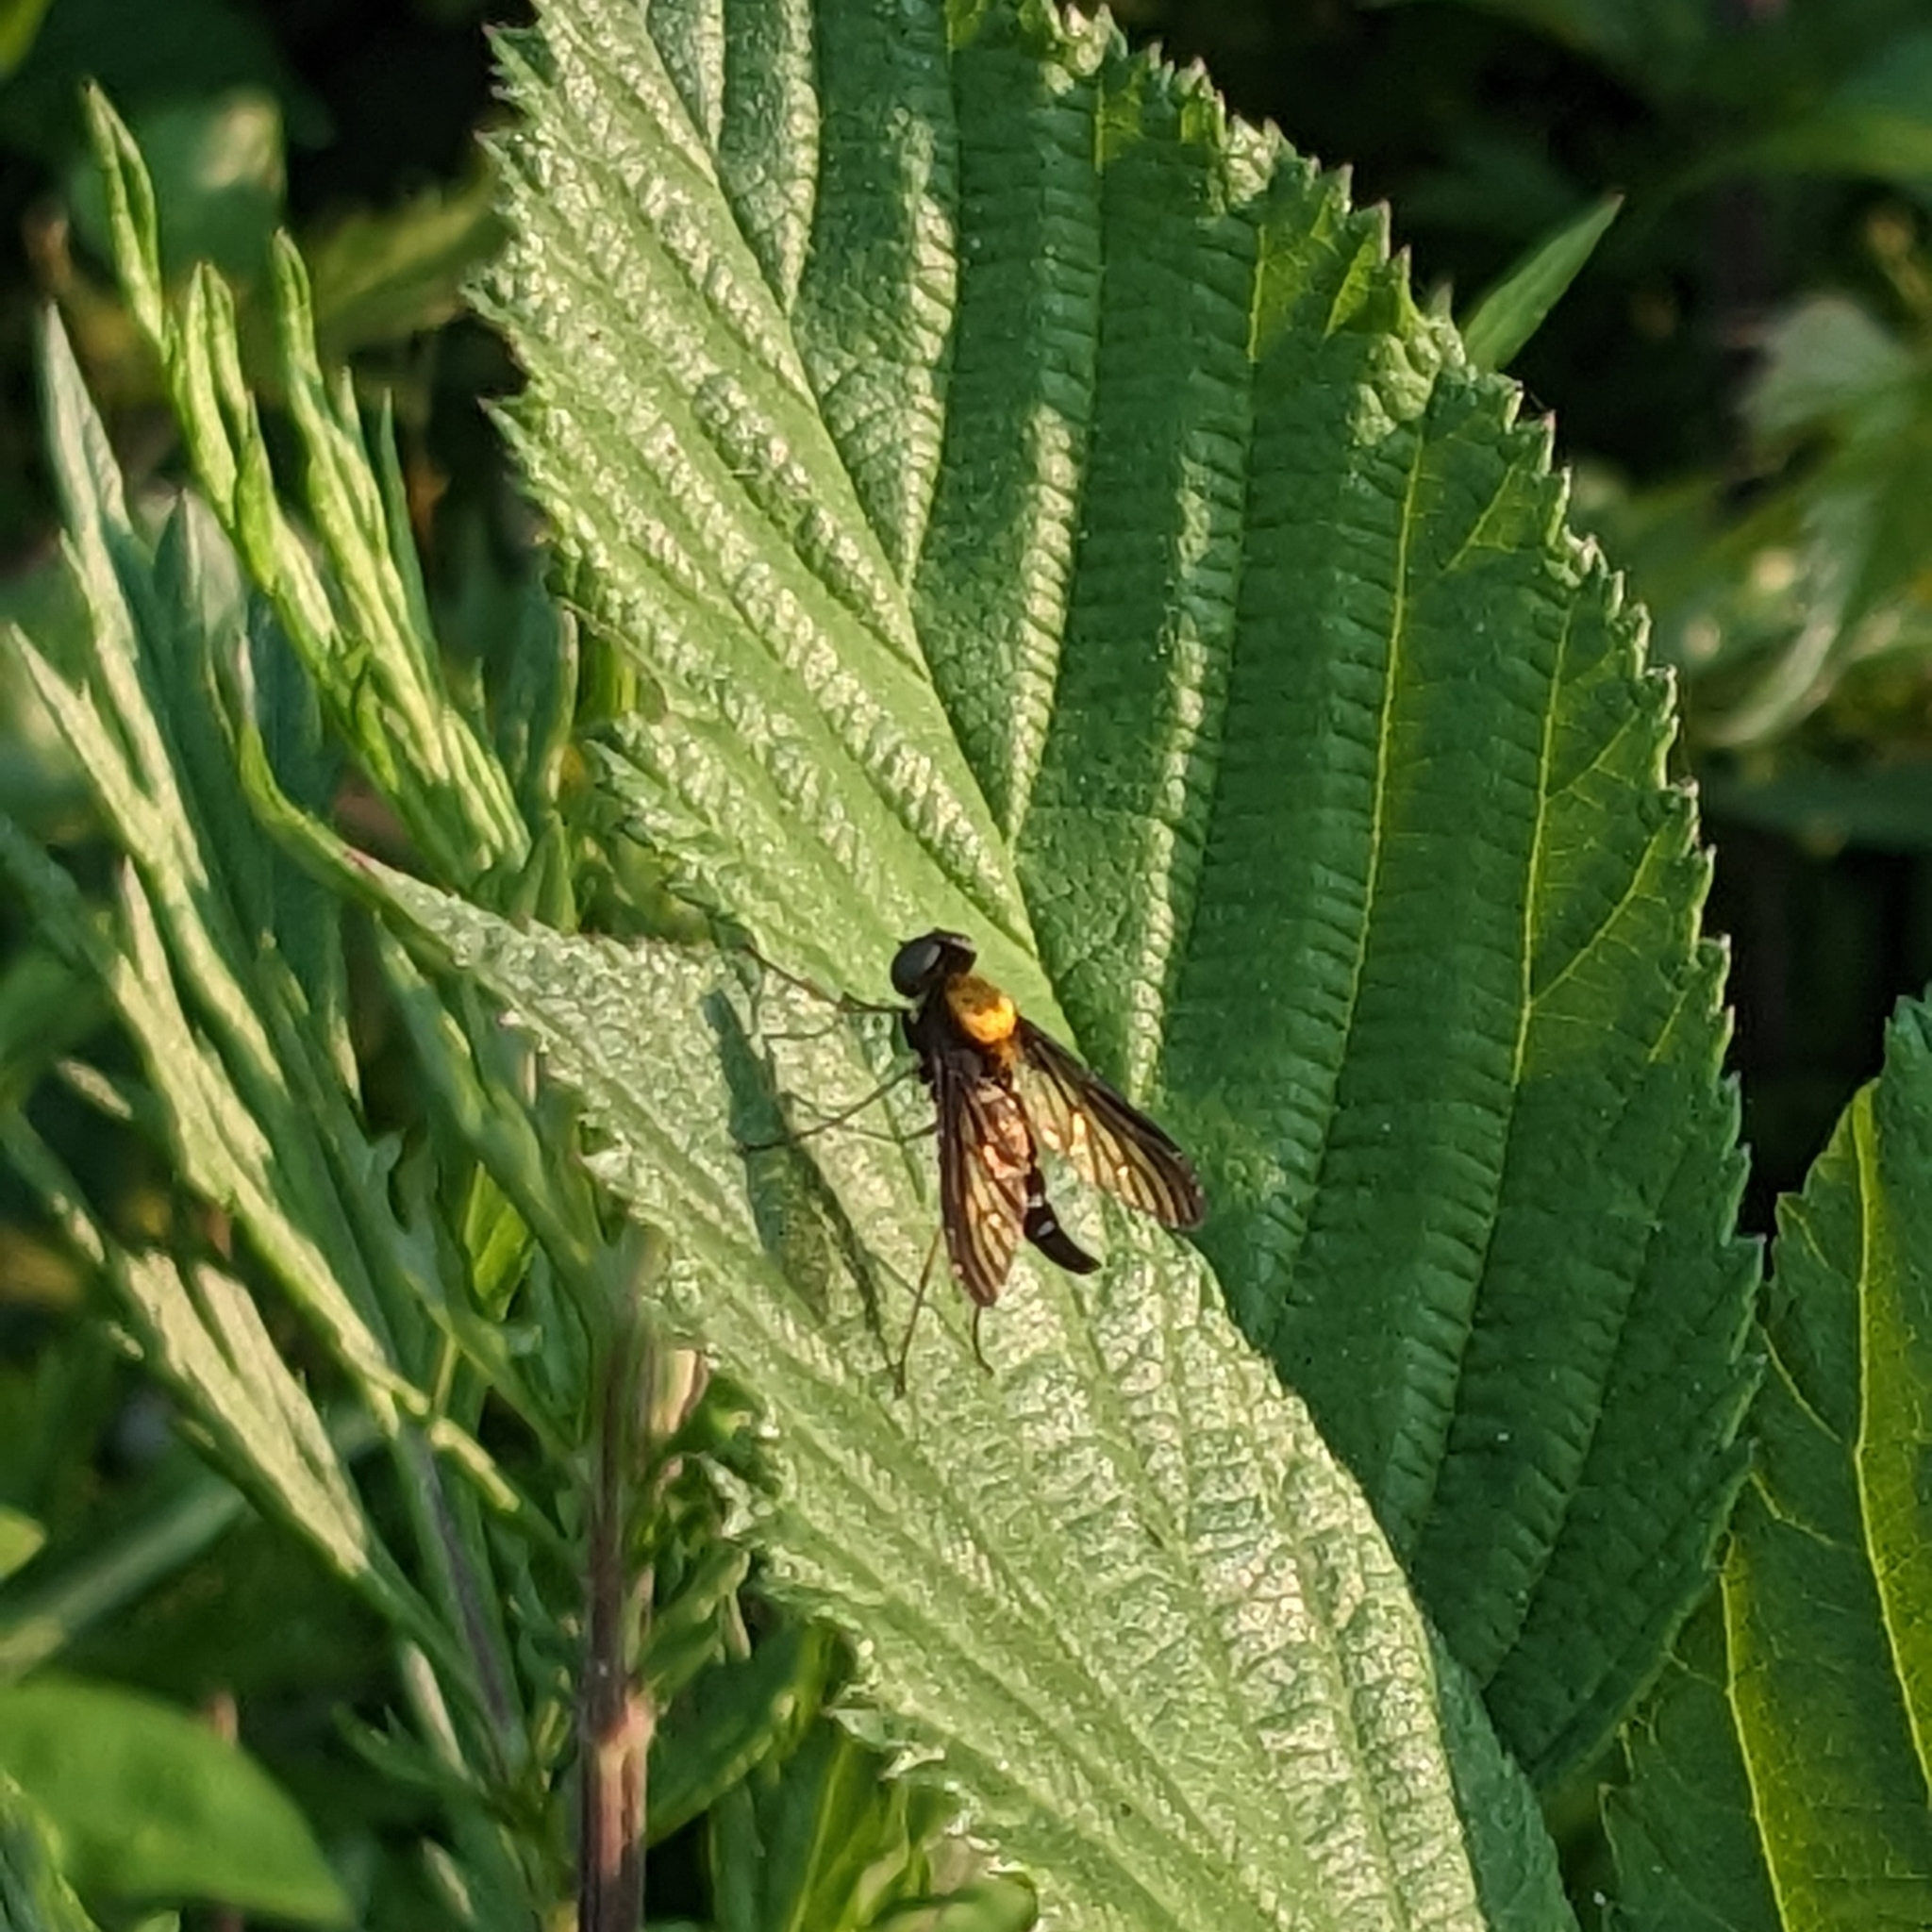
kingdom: Animalia
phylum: Arthropoda
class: Insecta
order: Diptera
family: Rhagionidae
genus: Chrysopilus
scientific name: Chrysopilus thoracicus
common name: Golden-backed snipe fly
